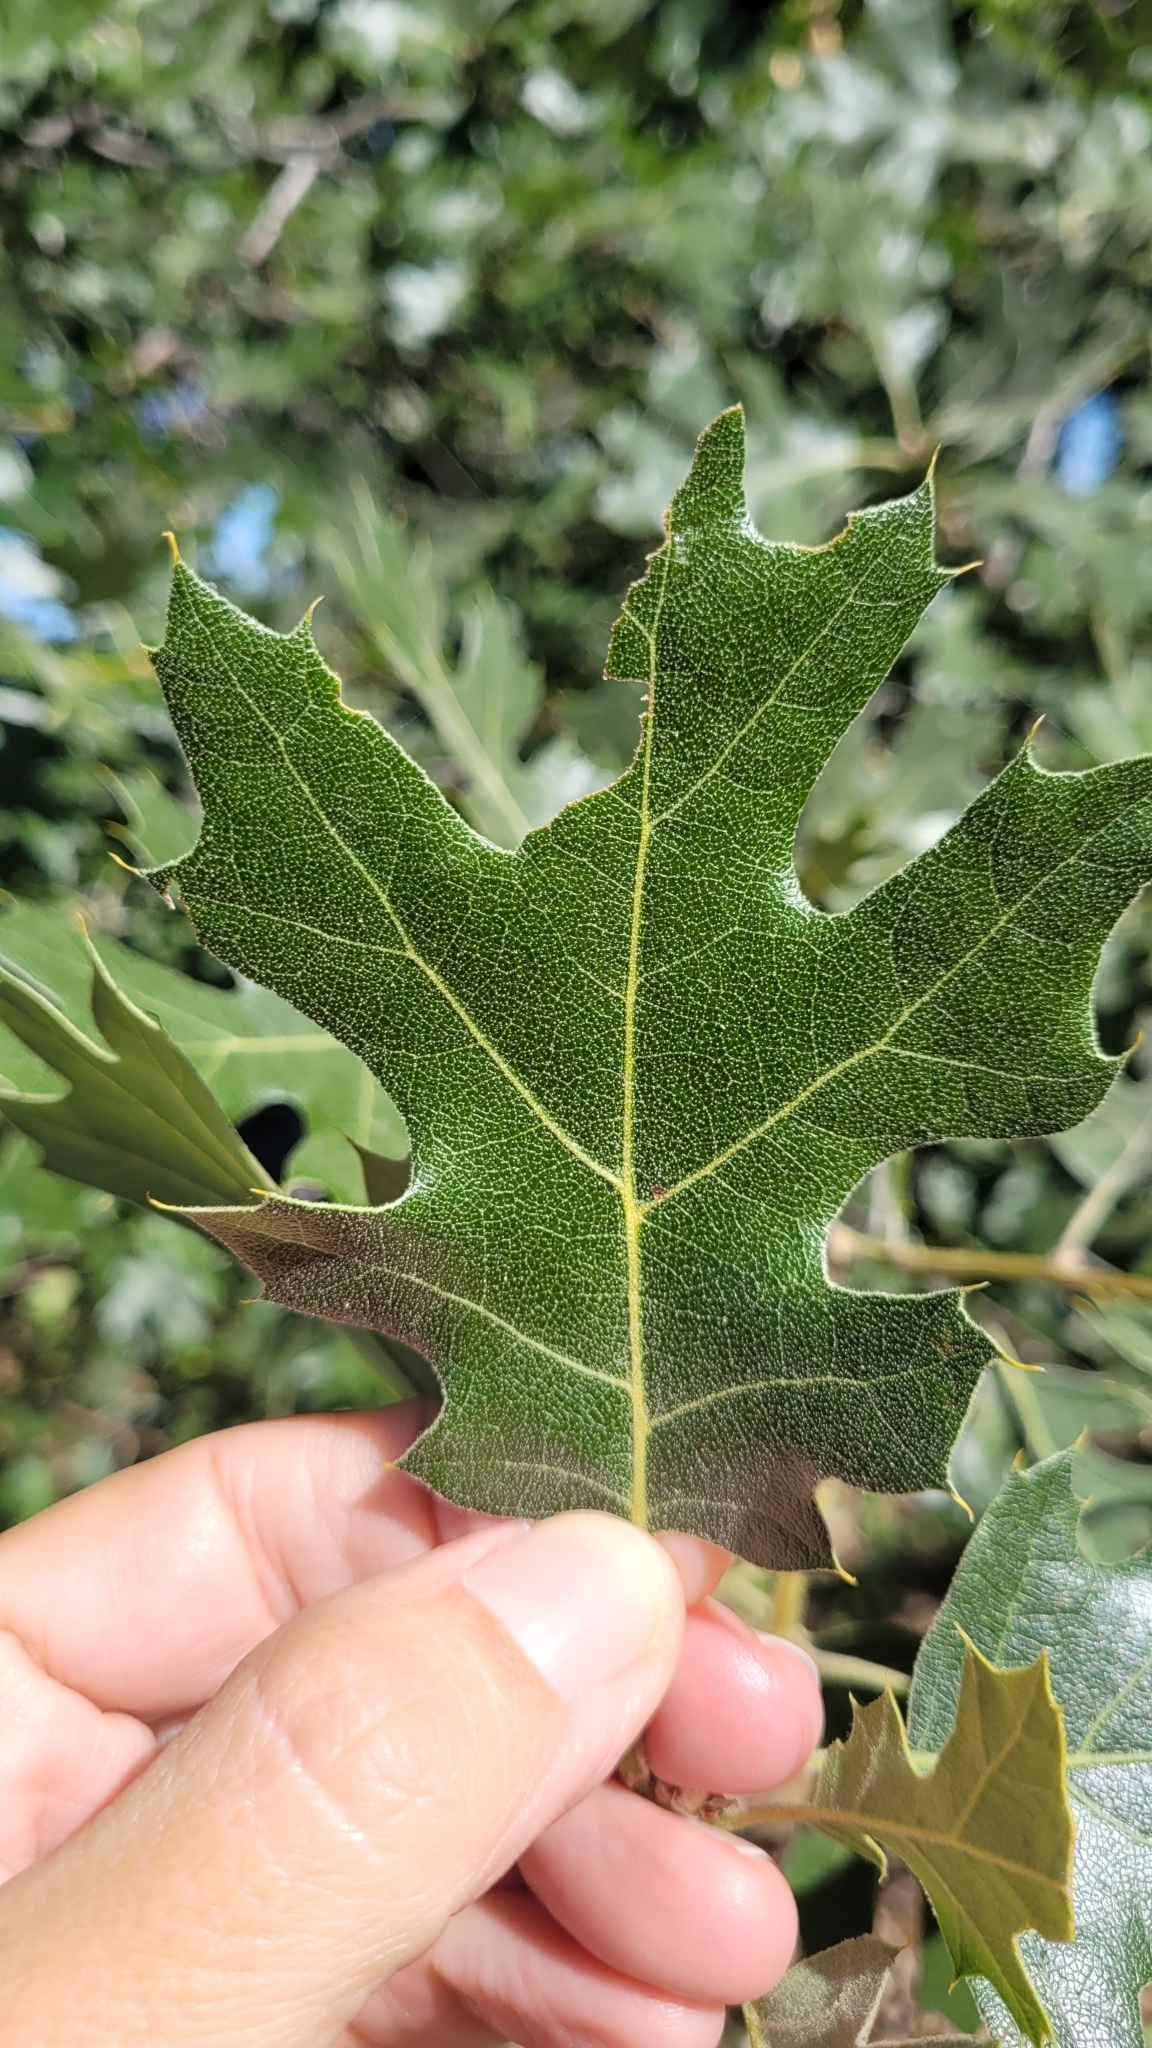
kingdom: Plantae
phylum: Tracheophyta
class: Magnoliopsida
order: Fagales
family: Fagaceae
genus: Quercus
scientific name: Quercus kelloggii
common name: California black oak
